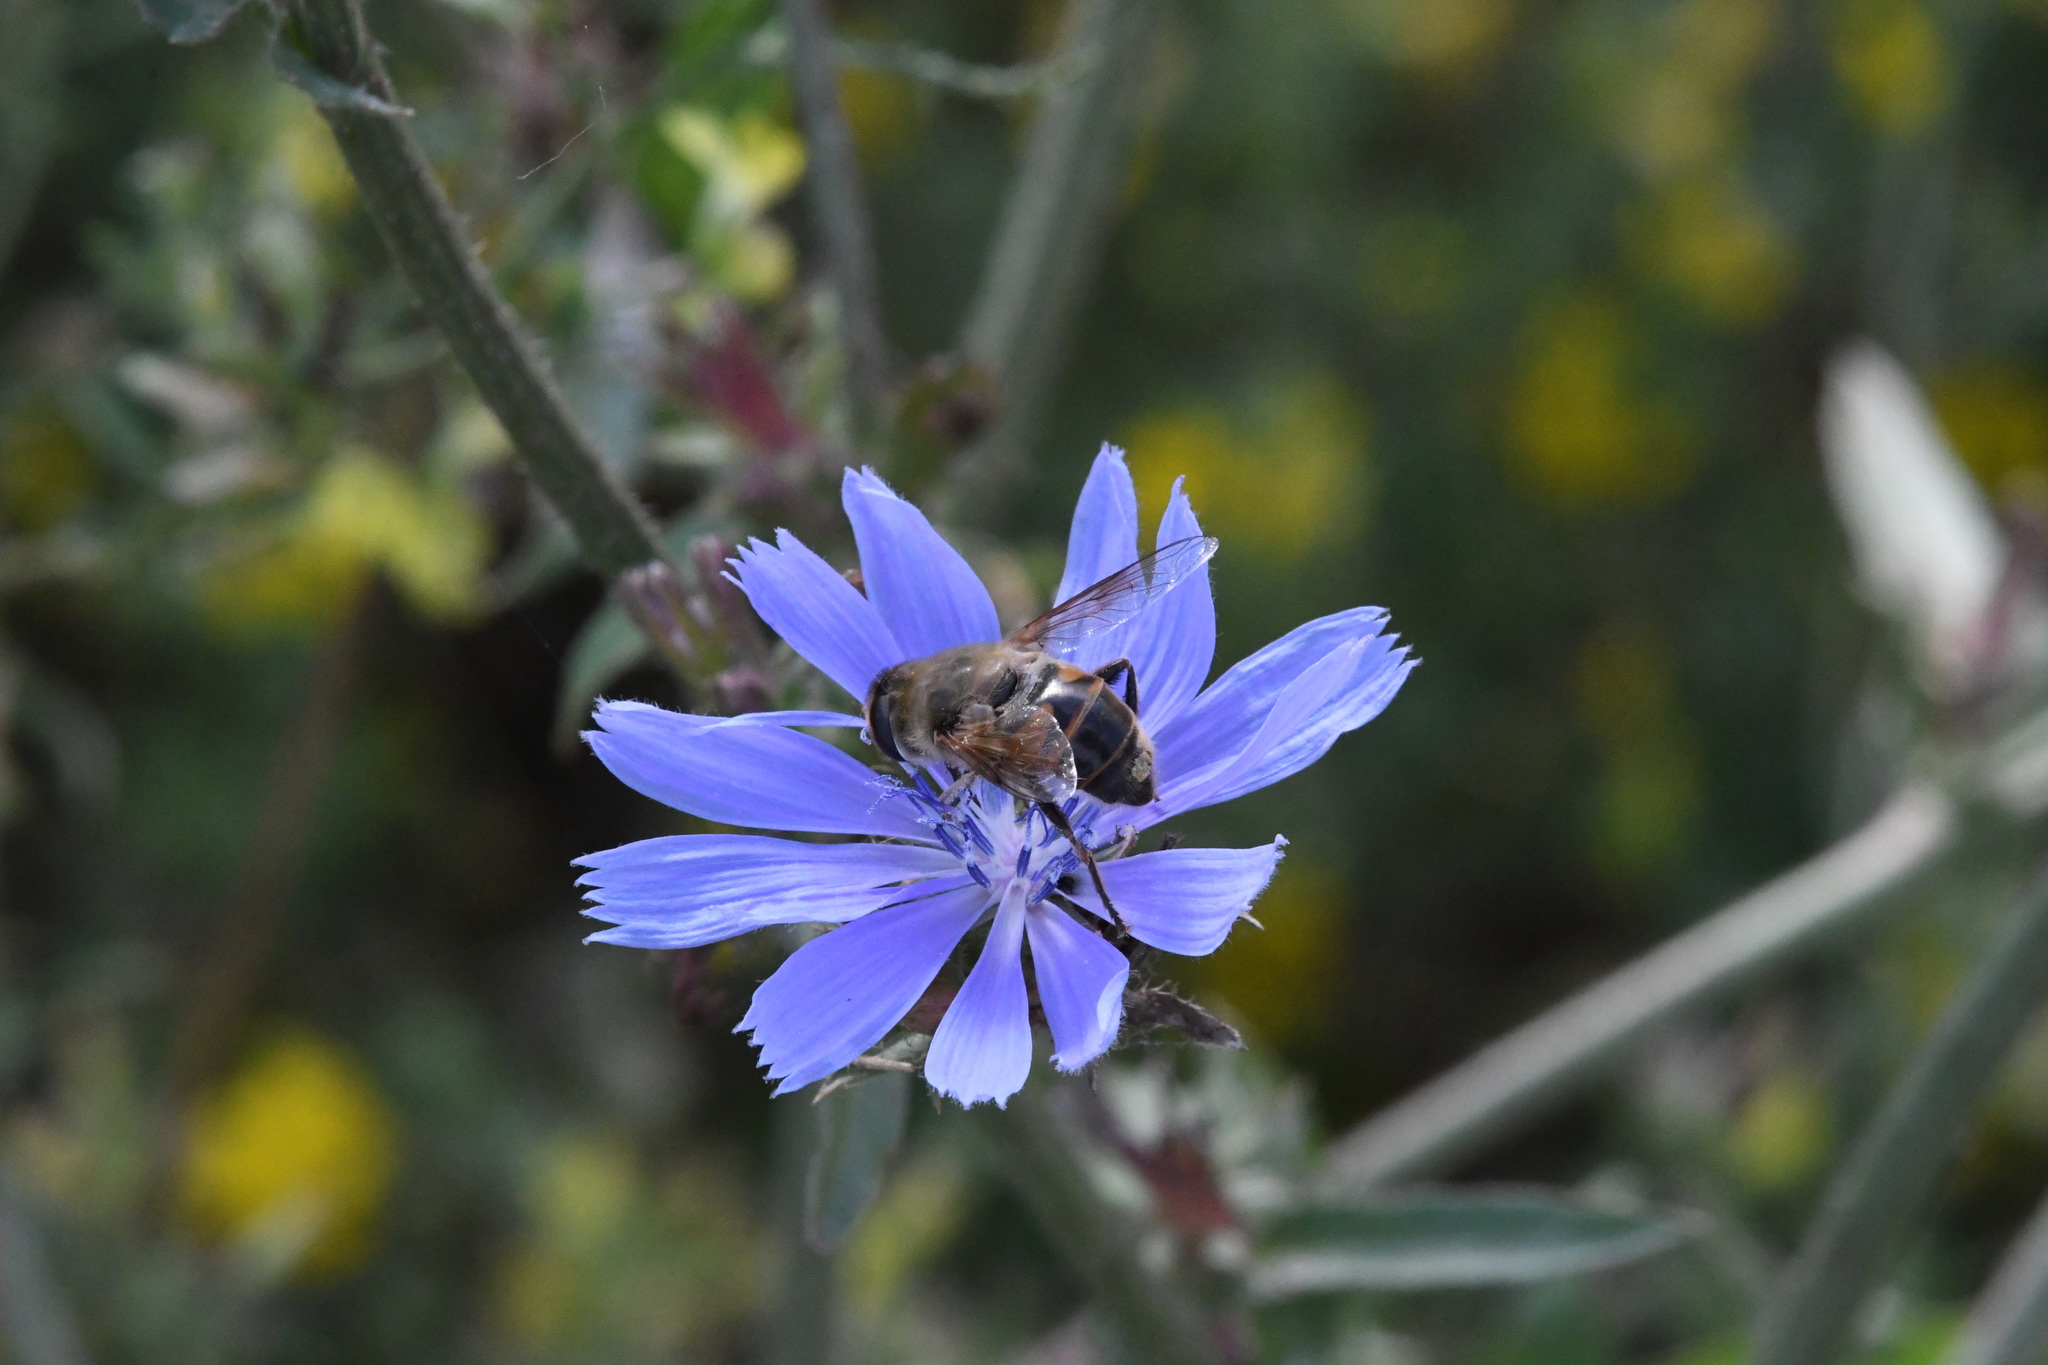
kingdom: Animalia
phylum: Arthropoda
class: Insecta
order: Diptera
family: Syrphidae
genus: Eristalis
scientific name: Eristalis tenax
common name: Drone fly
